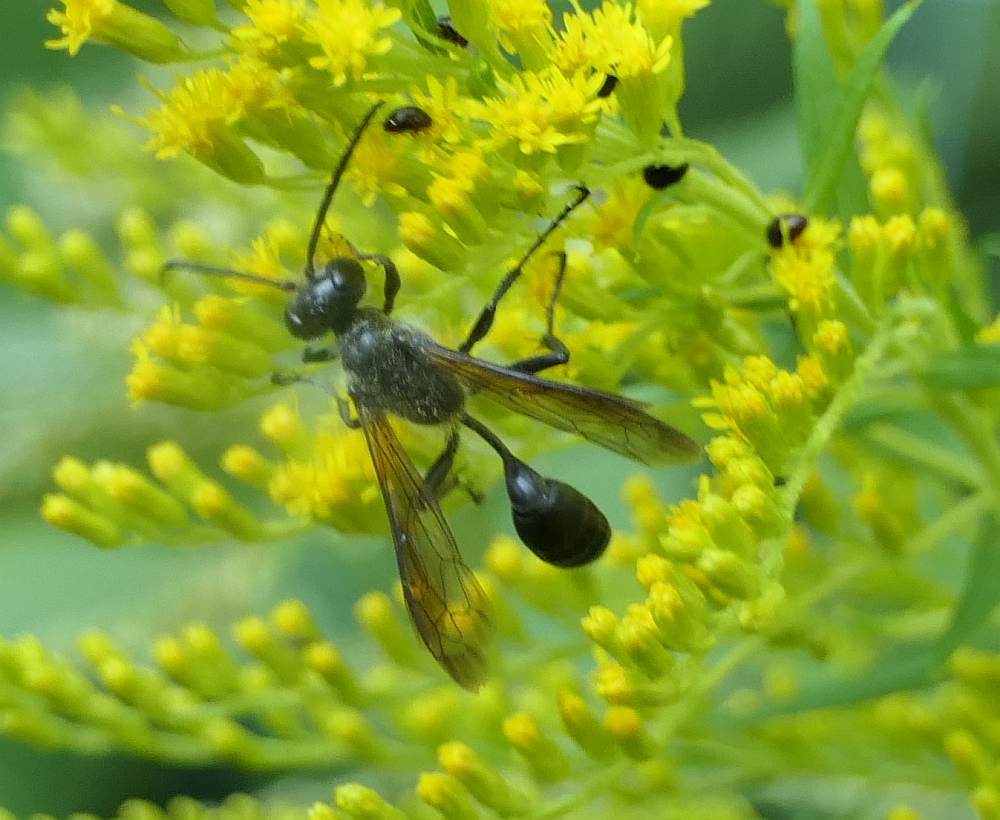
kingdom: Animalia
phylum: Arthropoda
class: Insecta
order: Hymenoptera
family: Sphecidae
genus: Isodontia
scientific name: Isodontia mexicana
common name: Mud dauber
